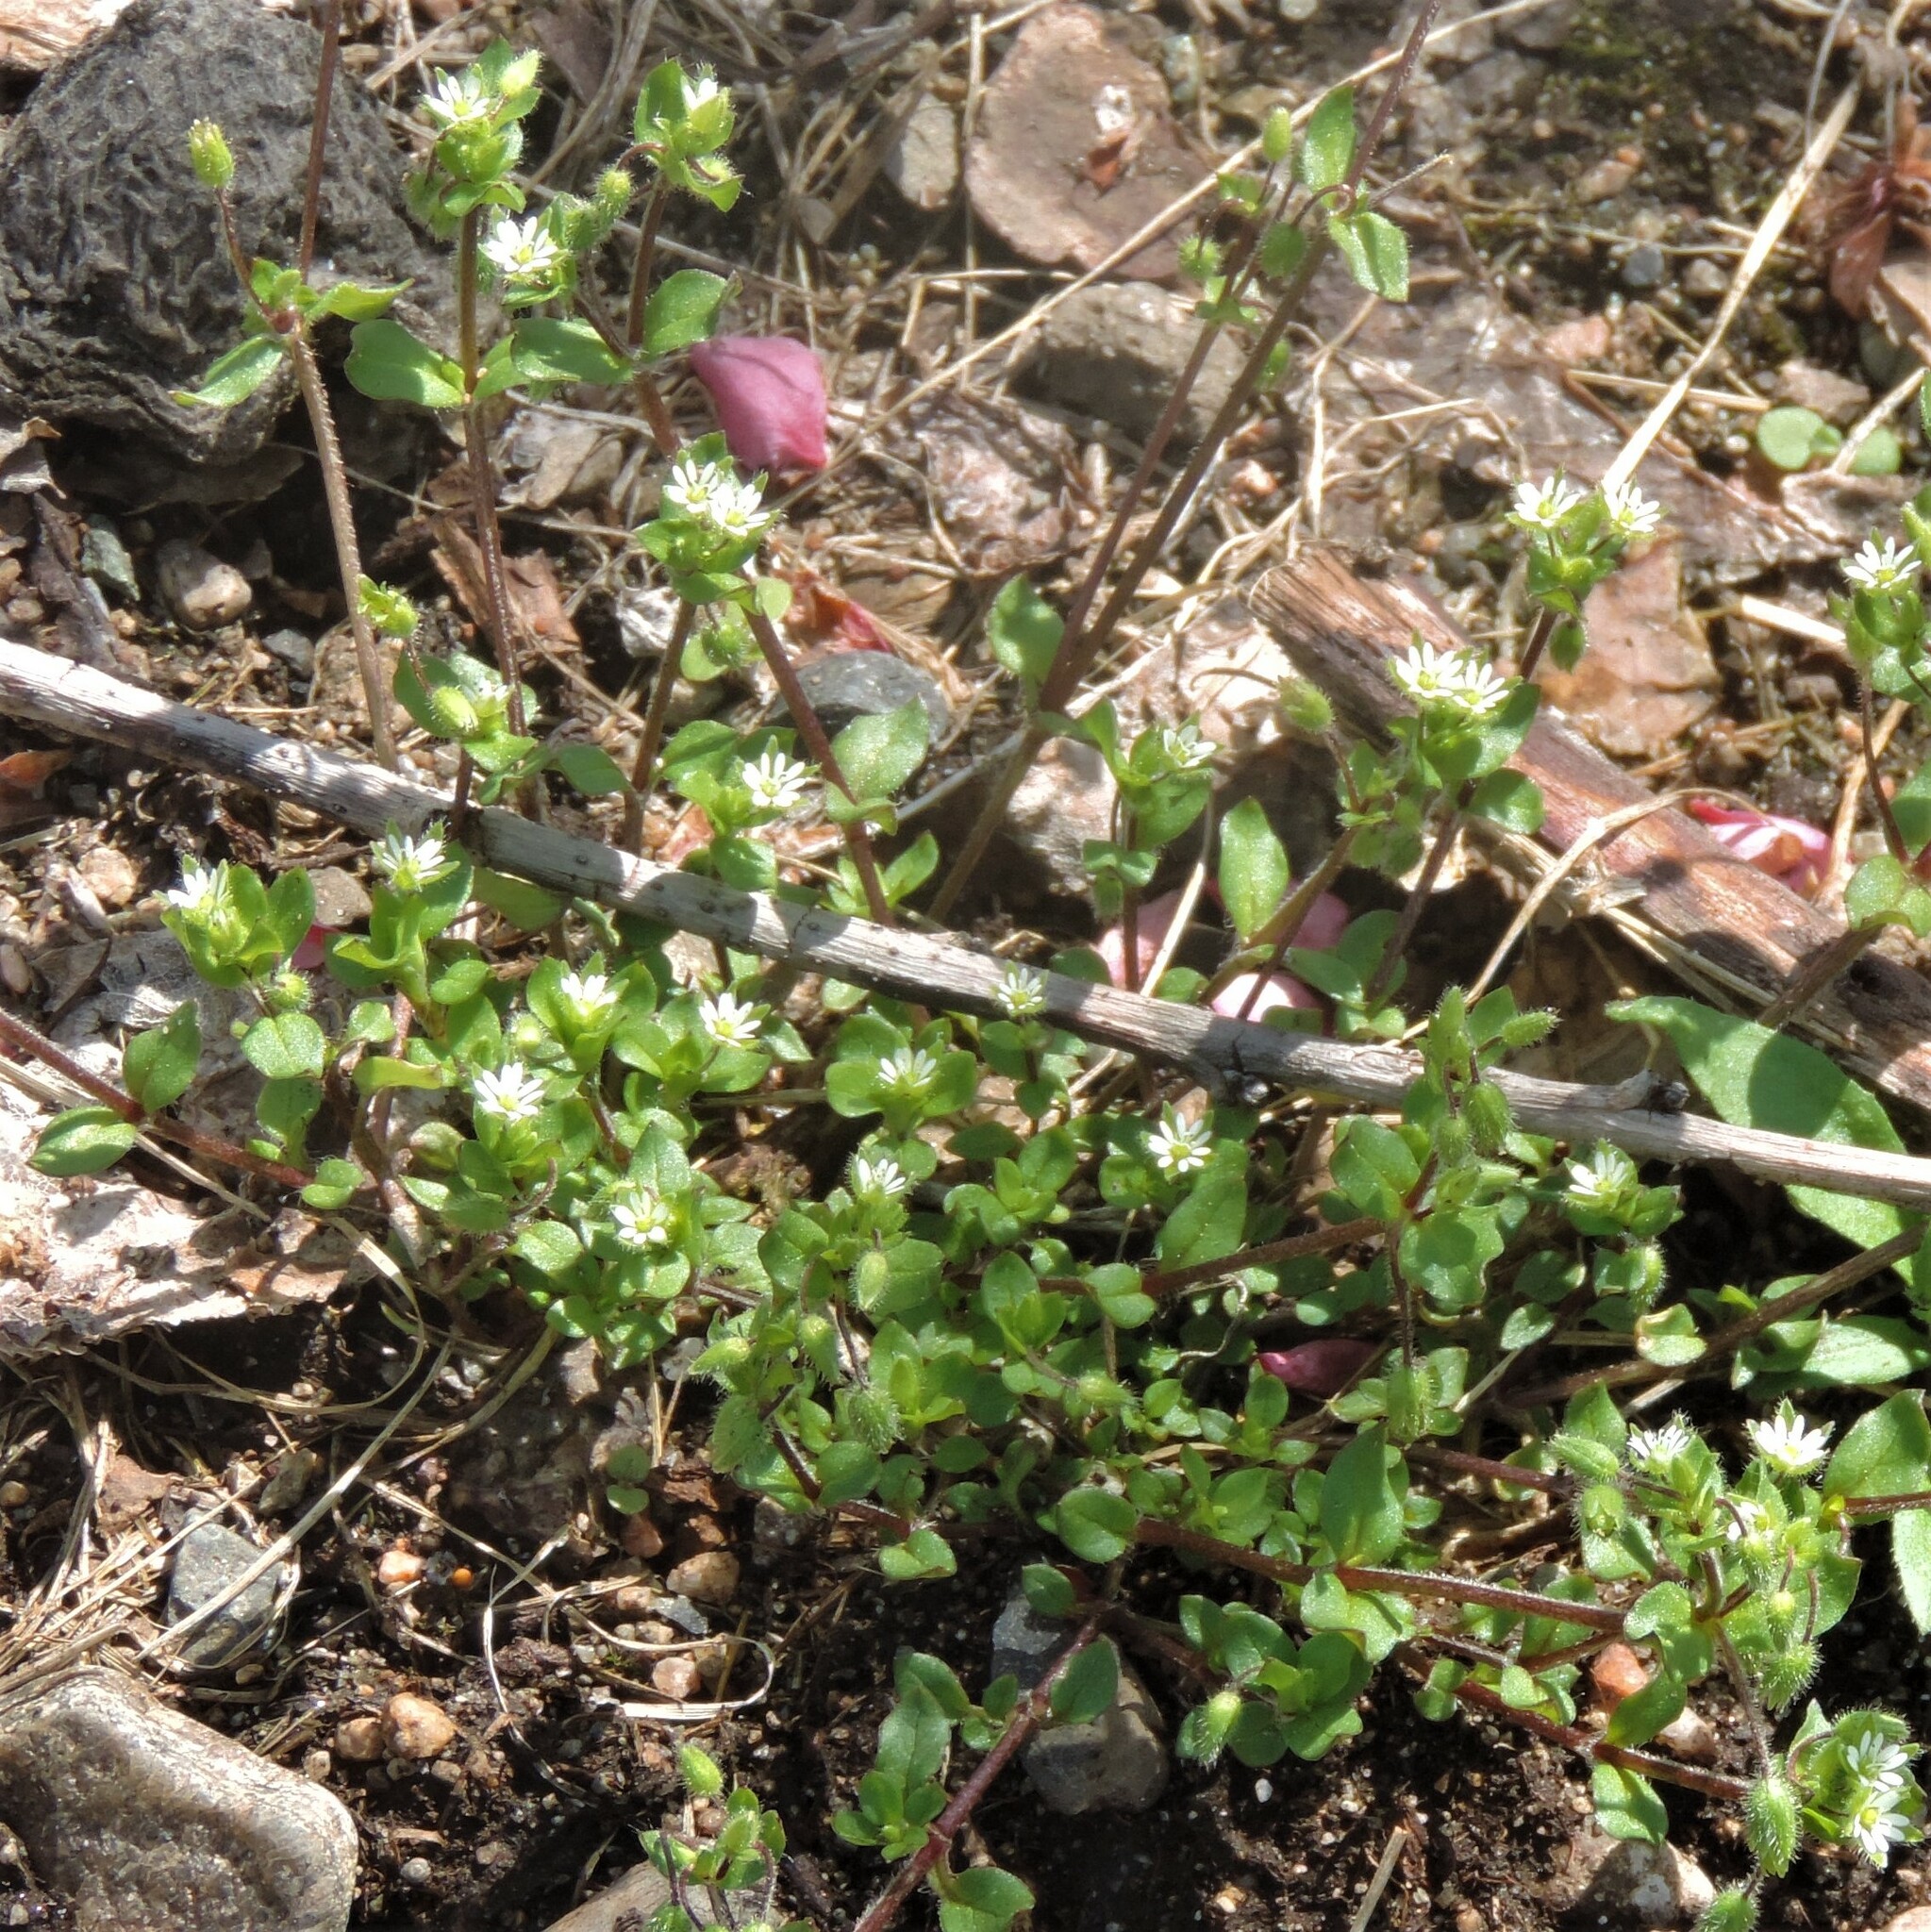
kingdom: Plantae
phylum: Tracheophyta
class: Magnoliopsida
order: Caryophyllales
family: Caryophyllaceae
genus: Stellaria
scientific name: Stellaria media
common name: Common chickweed
